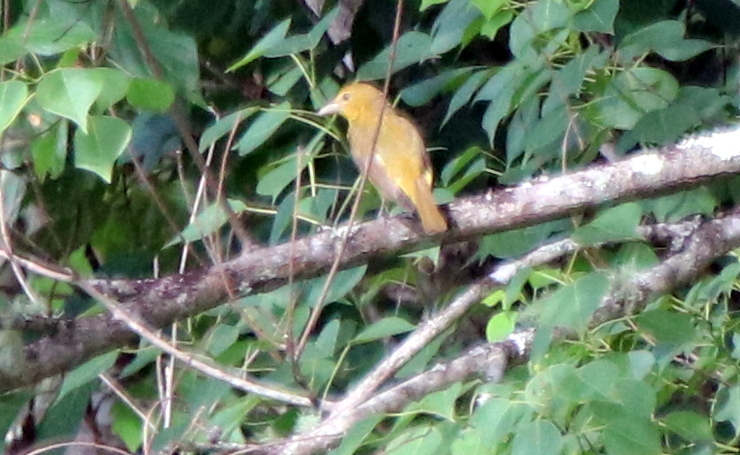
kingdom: Animalia
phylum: Chordata
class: Aves
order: Passeriformes
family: Cardinalidae
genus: Piranga
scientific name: Piranga rubra
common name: Summer tanager
